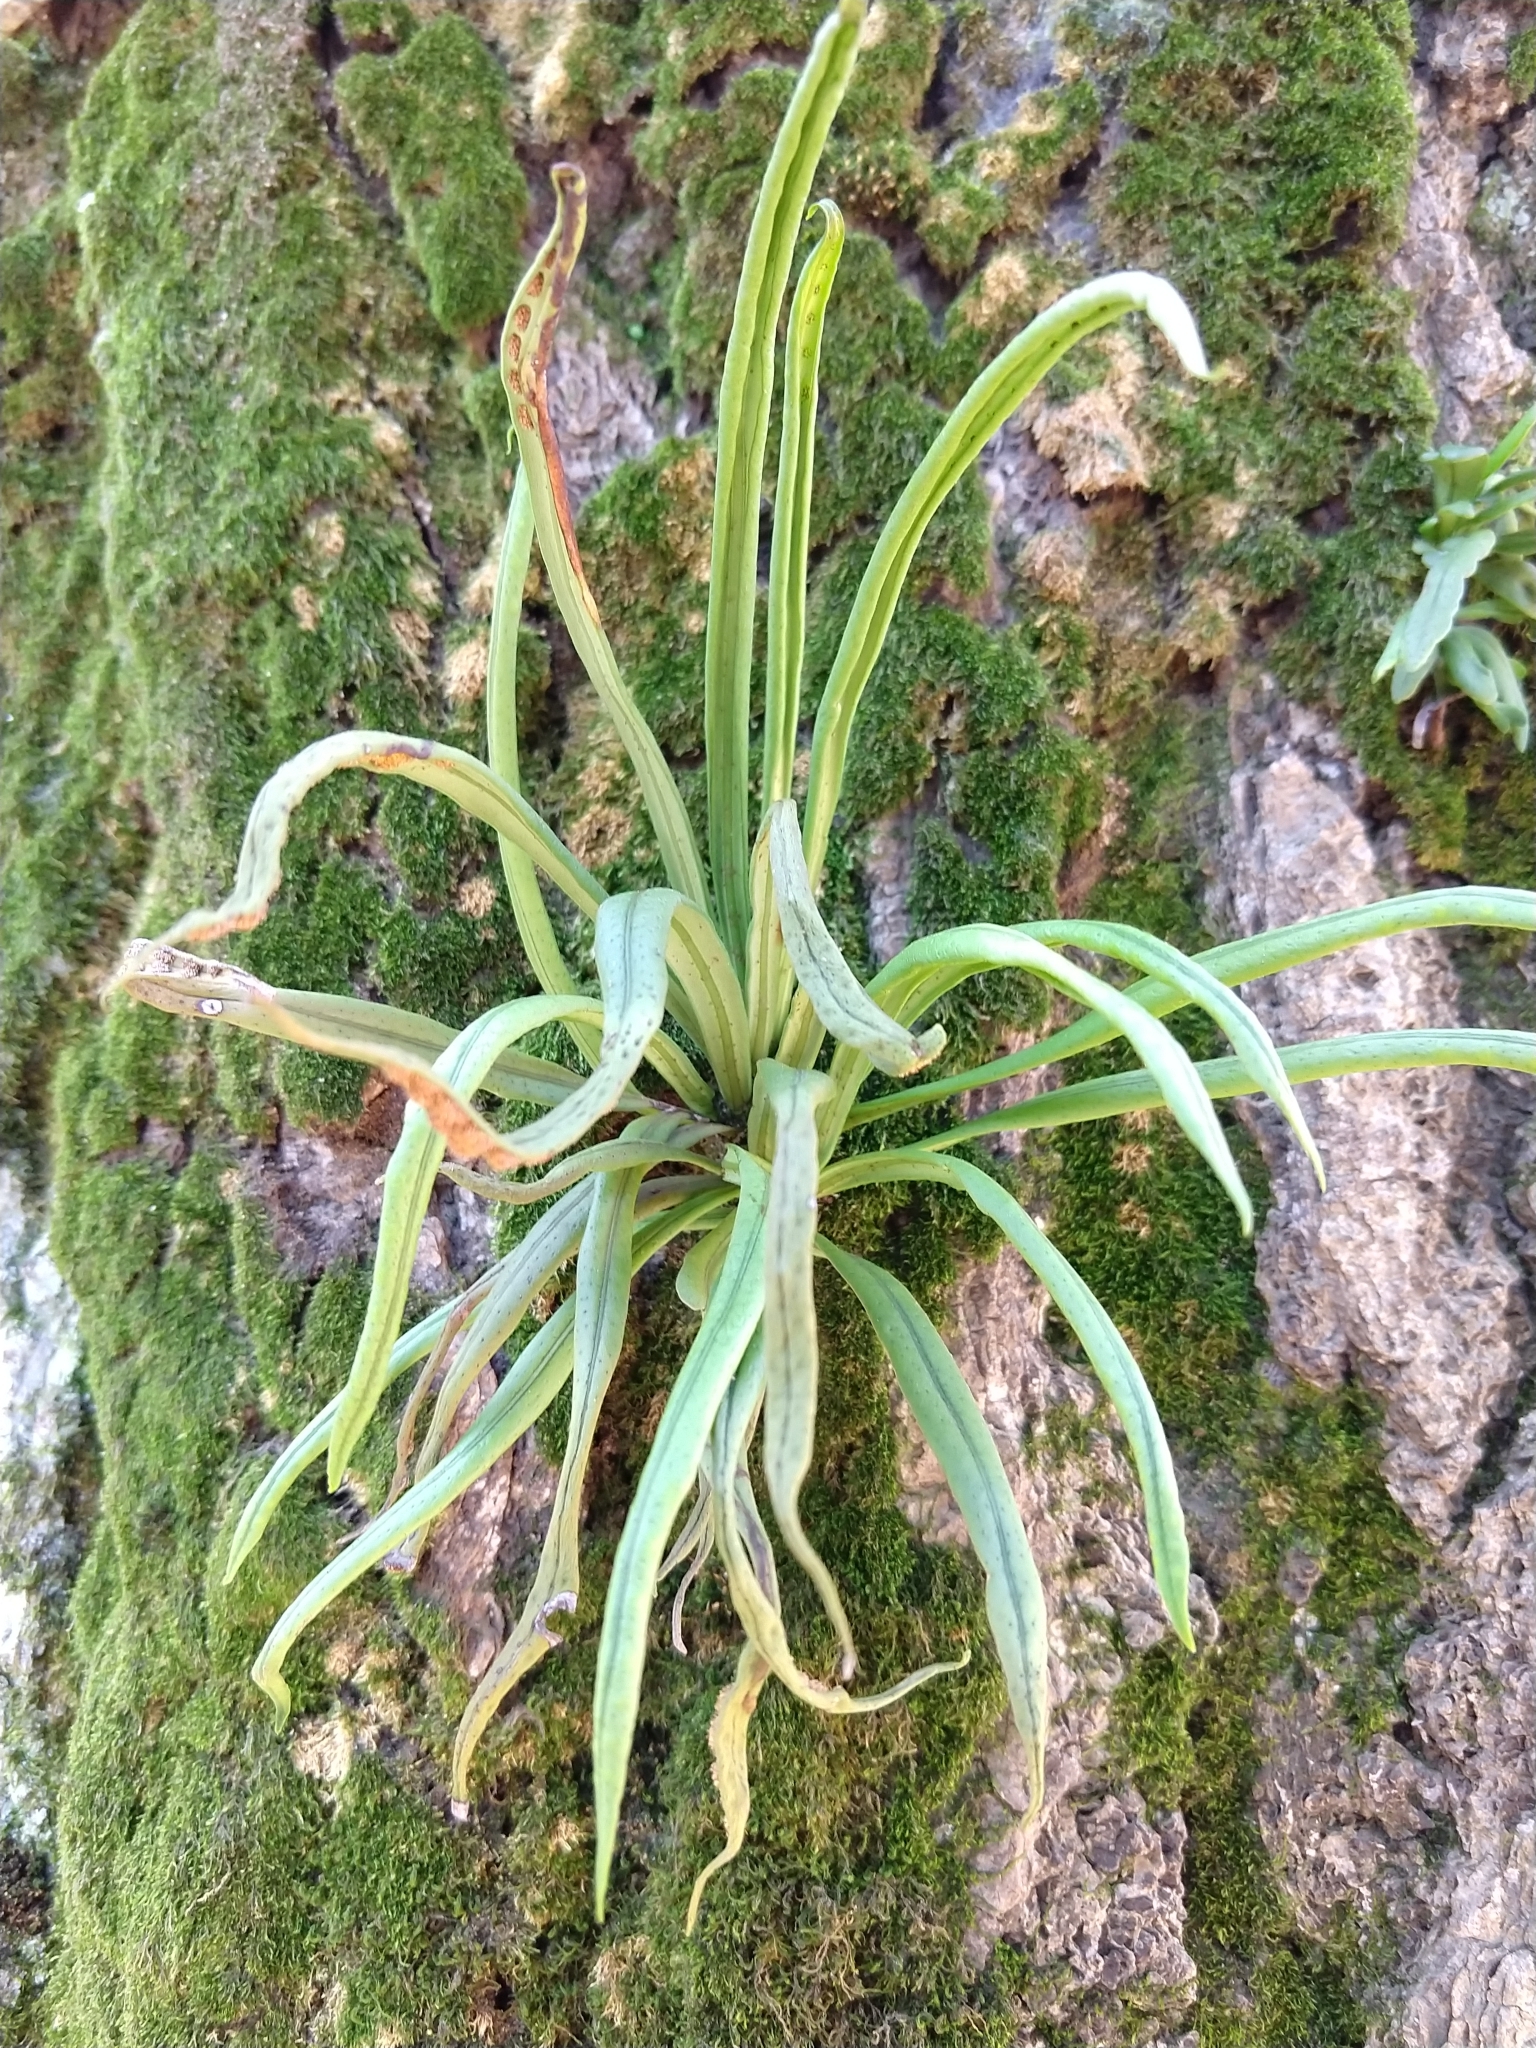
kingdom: Plantae
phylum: Tracheophyta
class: Polypodiopsida
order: Polypodiales
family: Polypodiaceae
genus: Lepisorus
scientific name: Lepisorus thunbergianus
